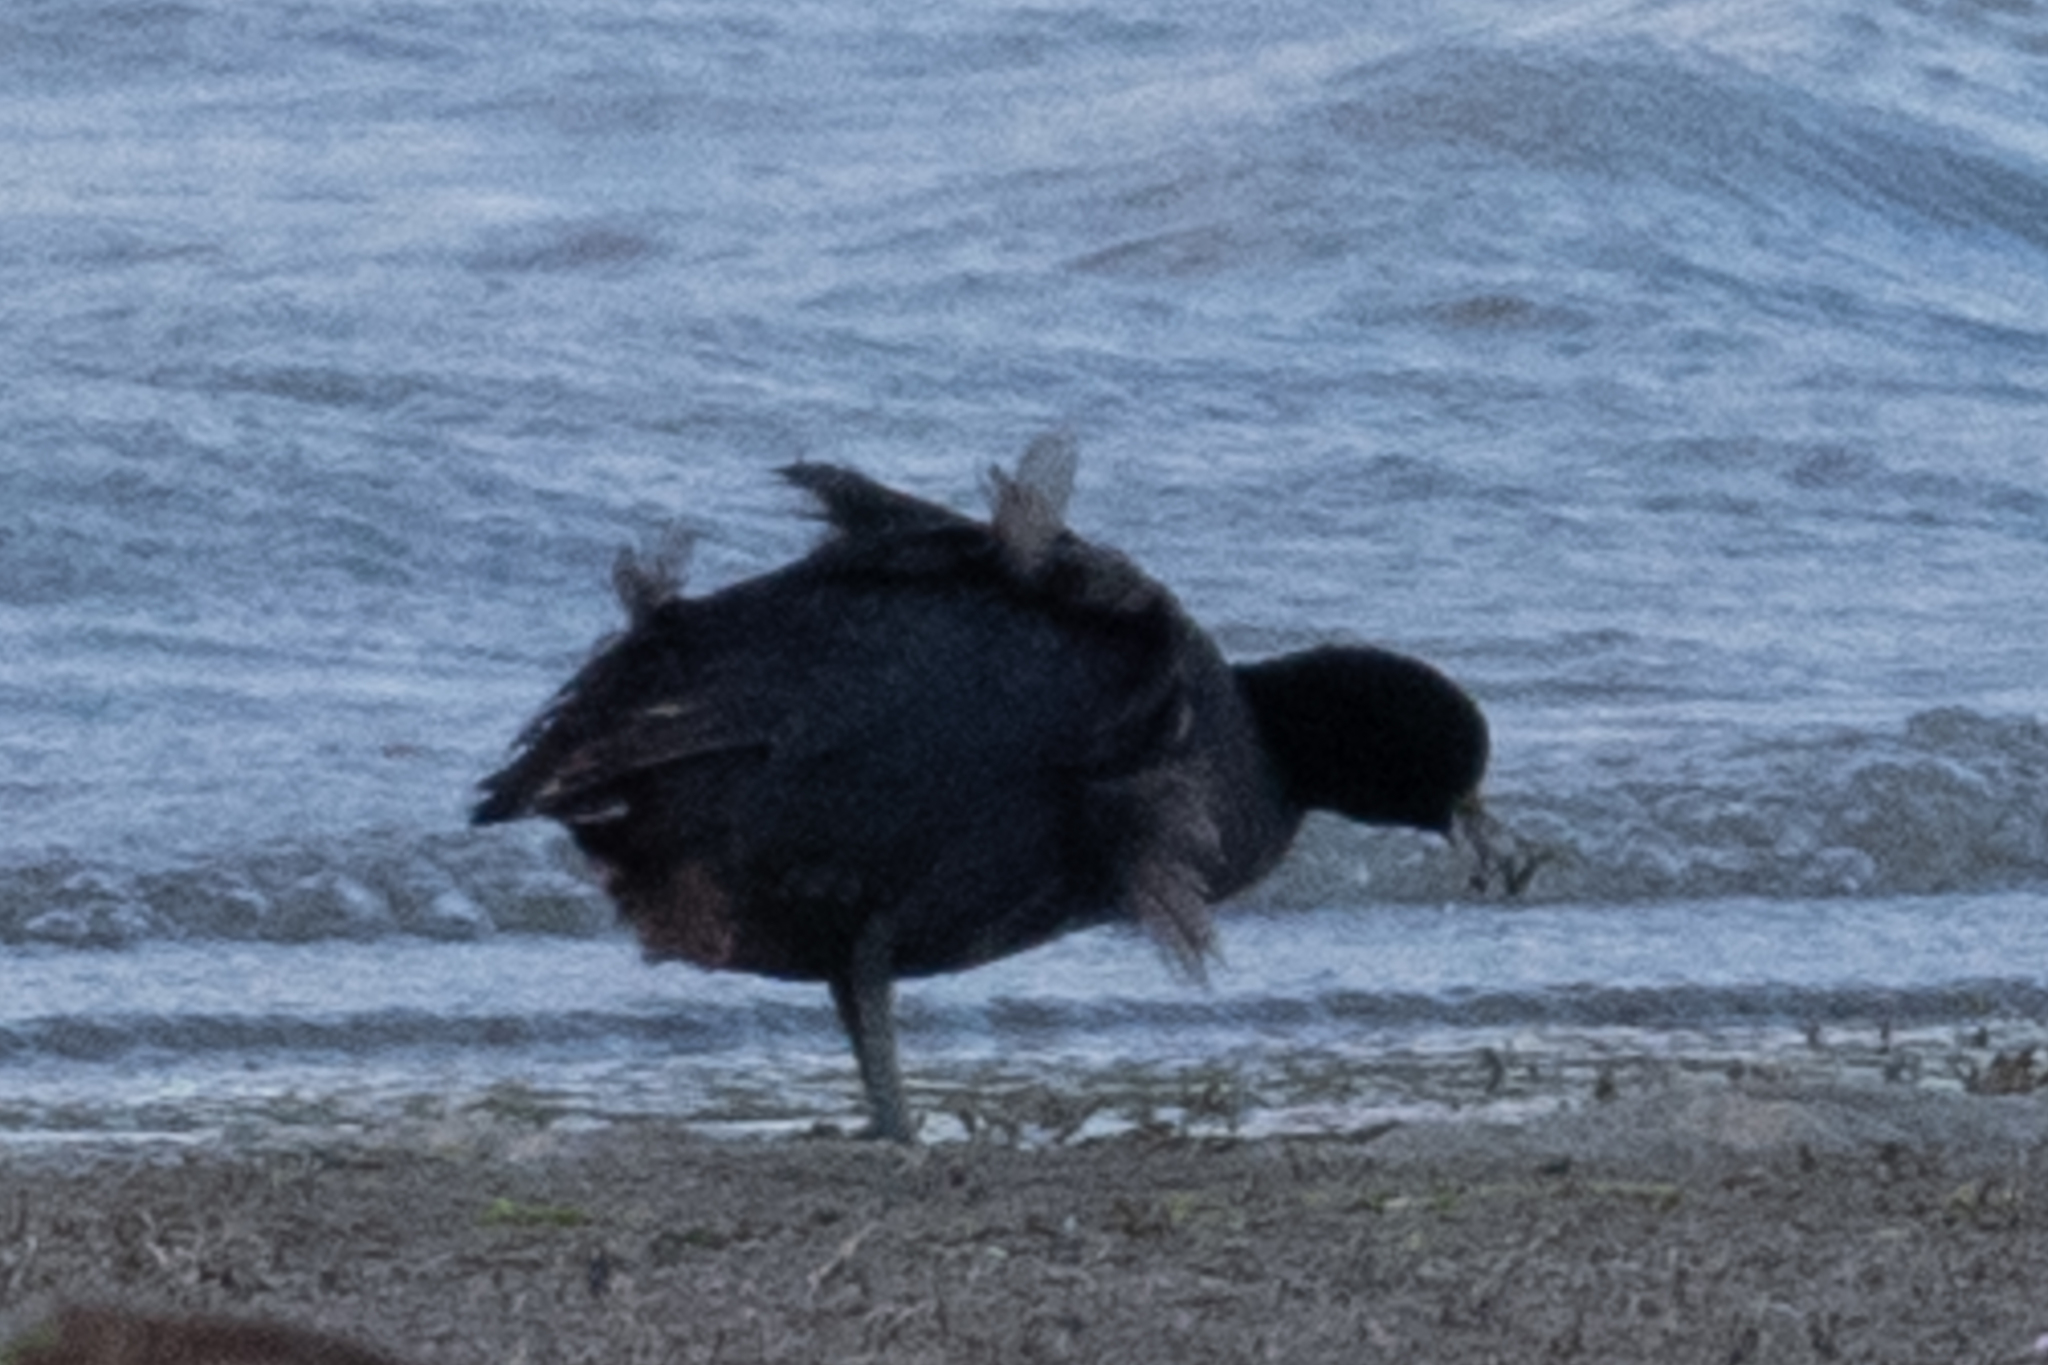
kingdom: Animalia
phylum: Chordata
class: Aves
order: Gruiformes
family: Rallidae
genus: Fulica
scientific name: Fulica americana
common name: American coot
